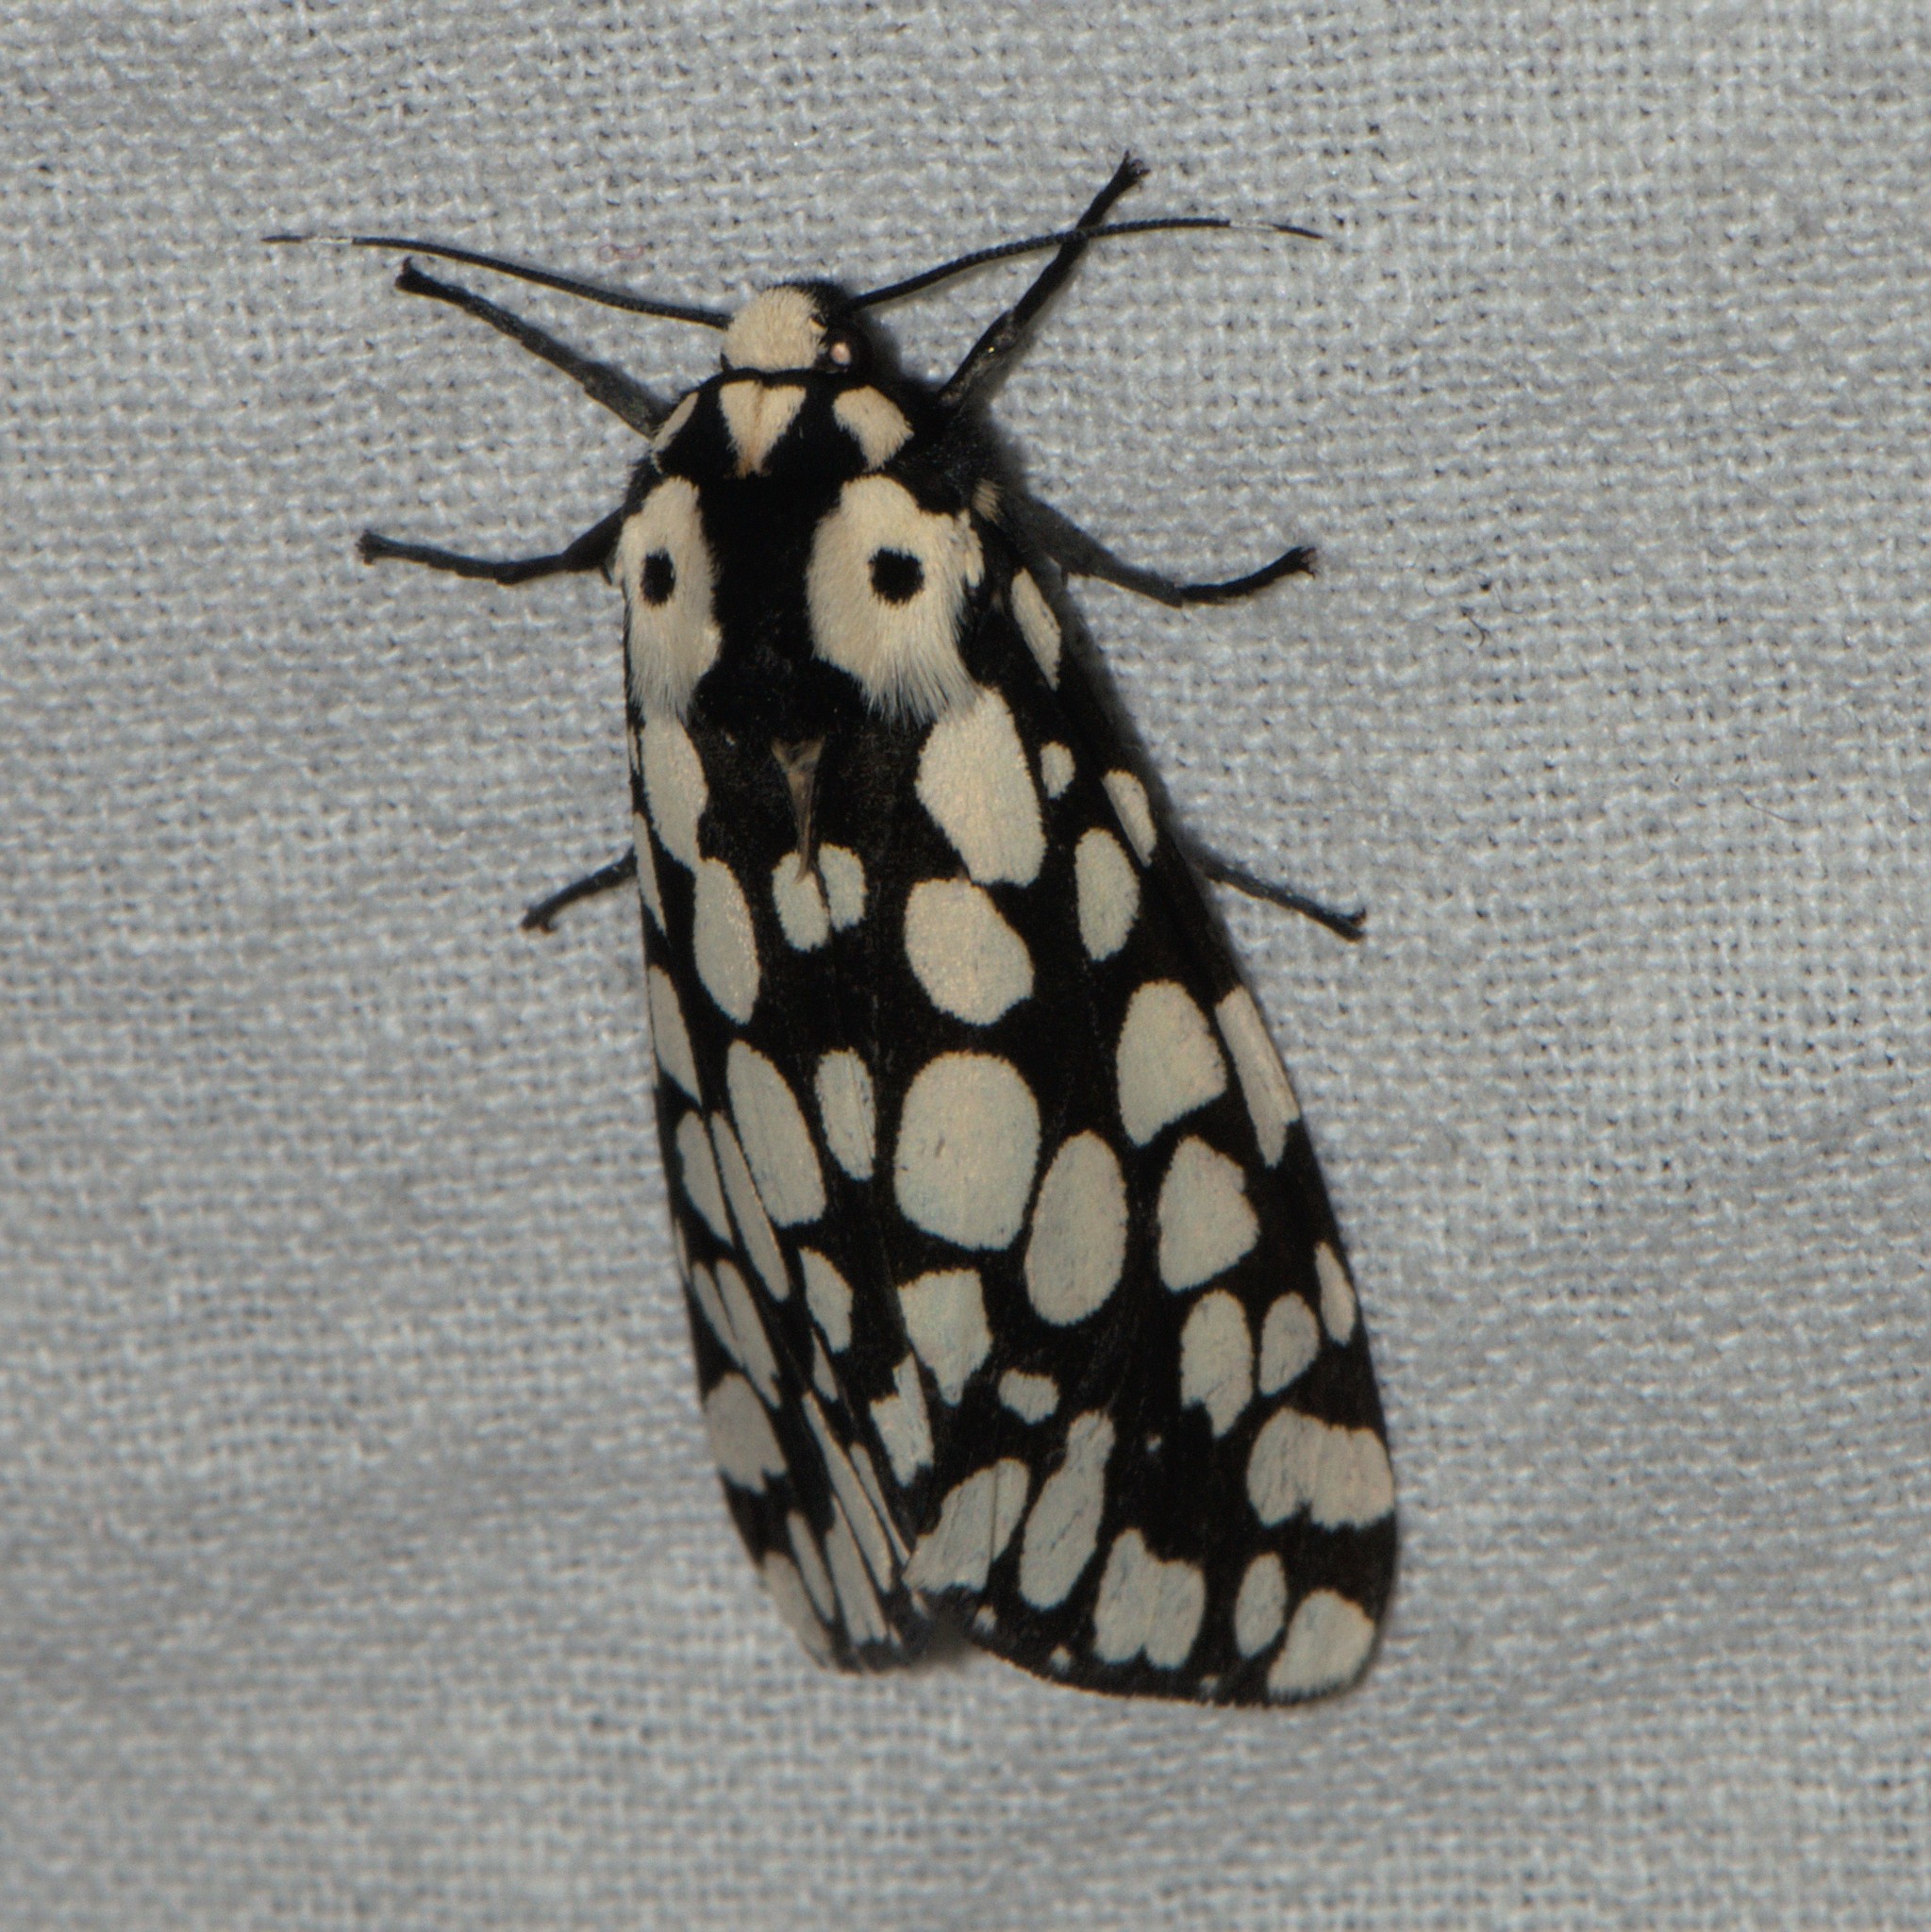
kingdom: Animalia
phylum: Arthropoda
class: Insecta
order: Lepidoptera
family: Erebidae
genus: Alphaea
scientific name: Alphaea impleta
